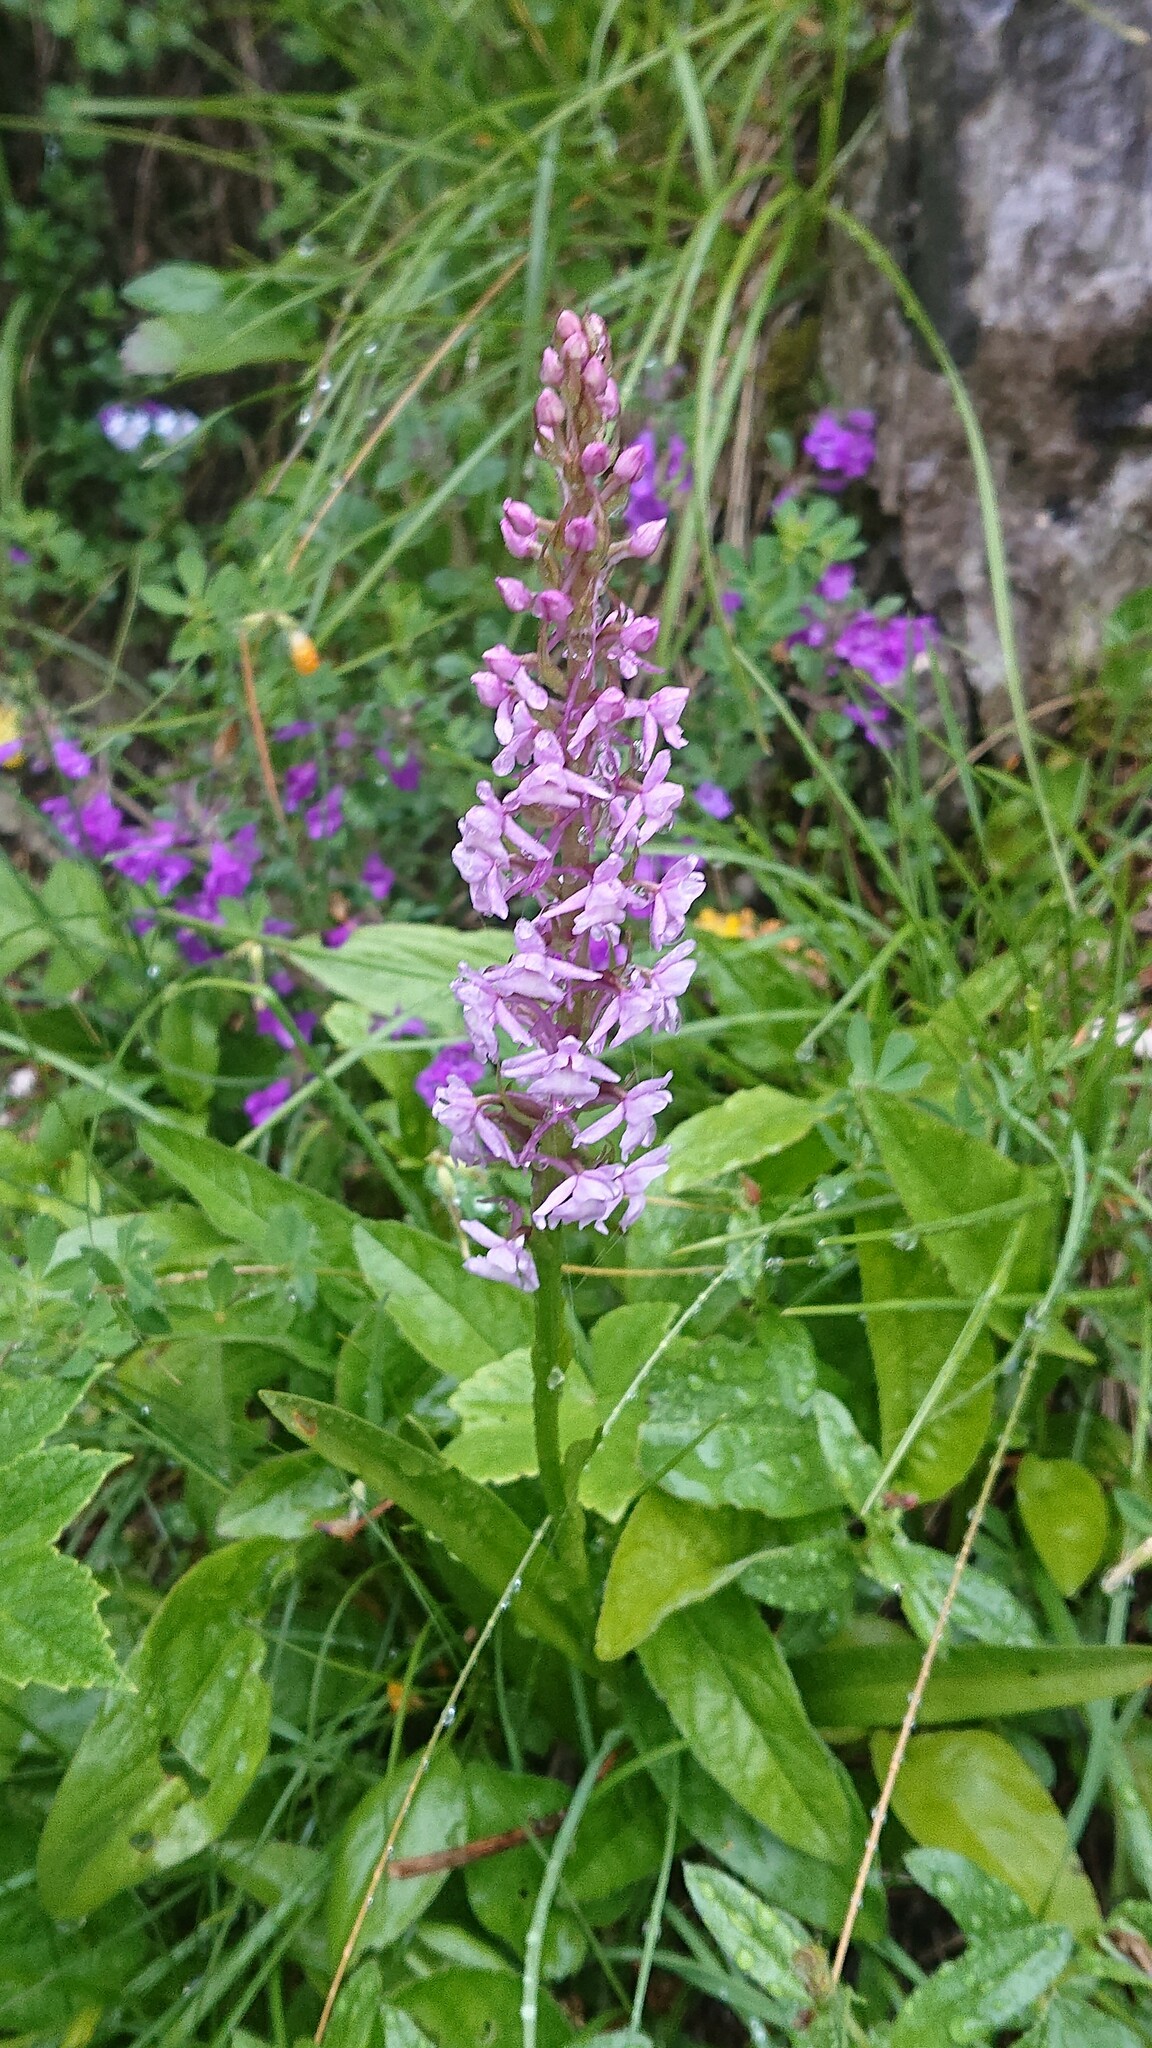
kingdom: Plantae
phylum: Tracheophyta
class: Liliopsida
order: Asparagales
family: Orchidaceae
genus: Gymnadenia
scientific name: Gymnadenia conopsea
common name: Fragrant orchid
